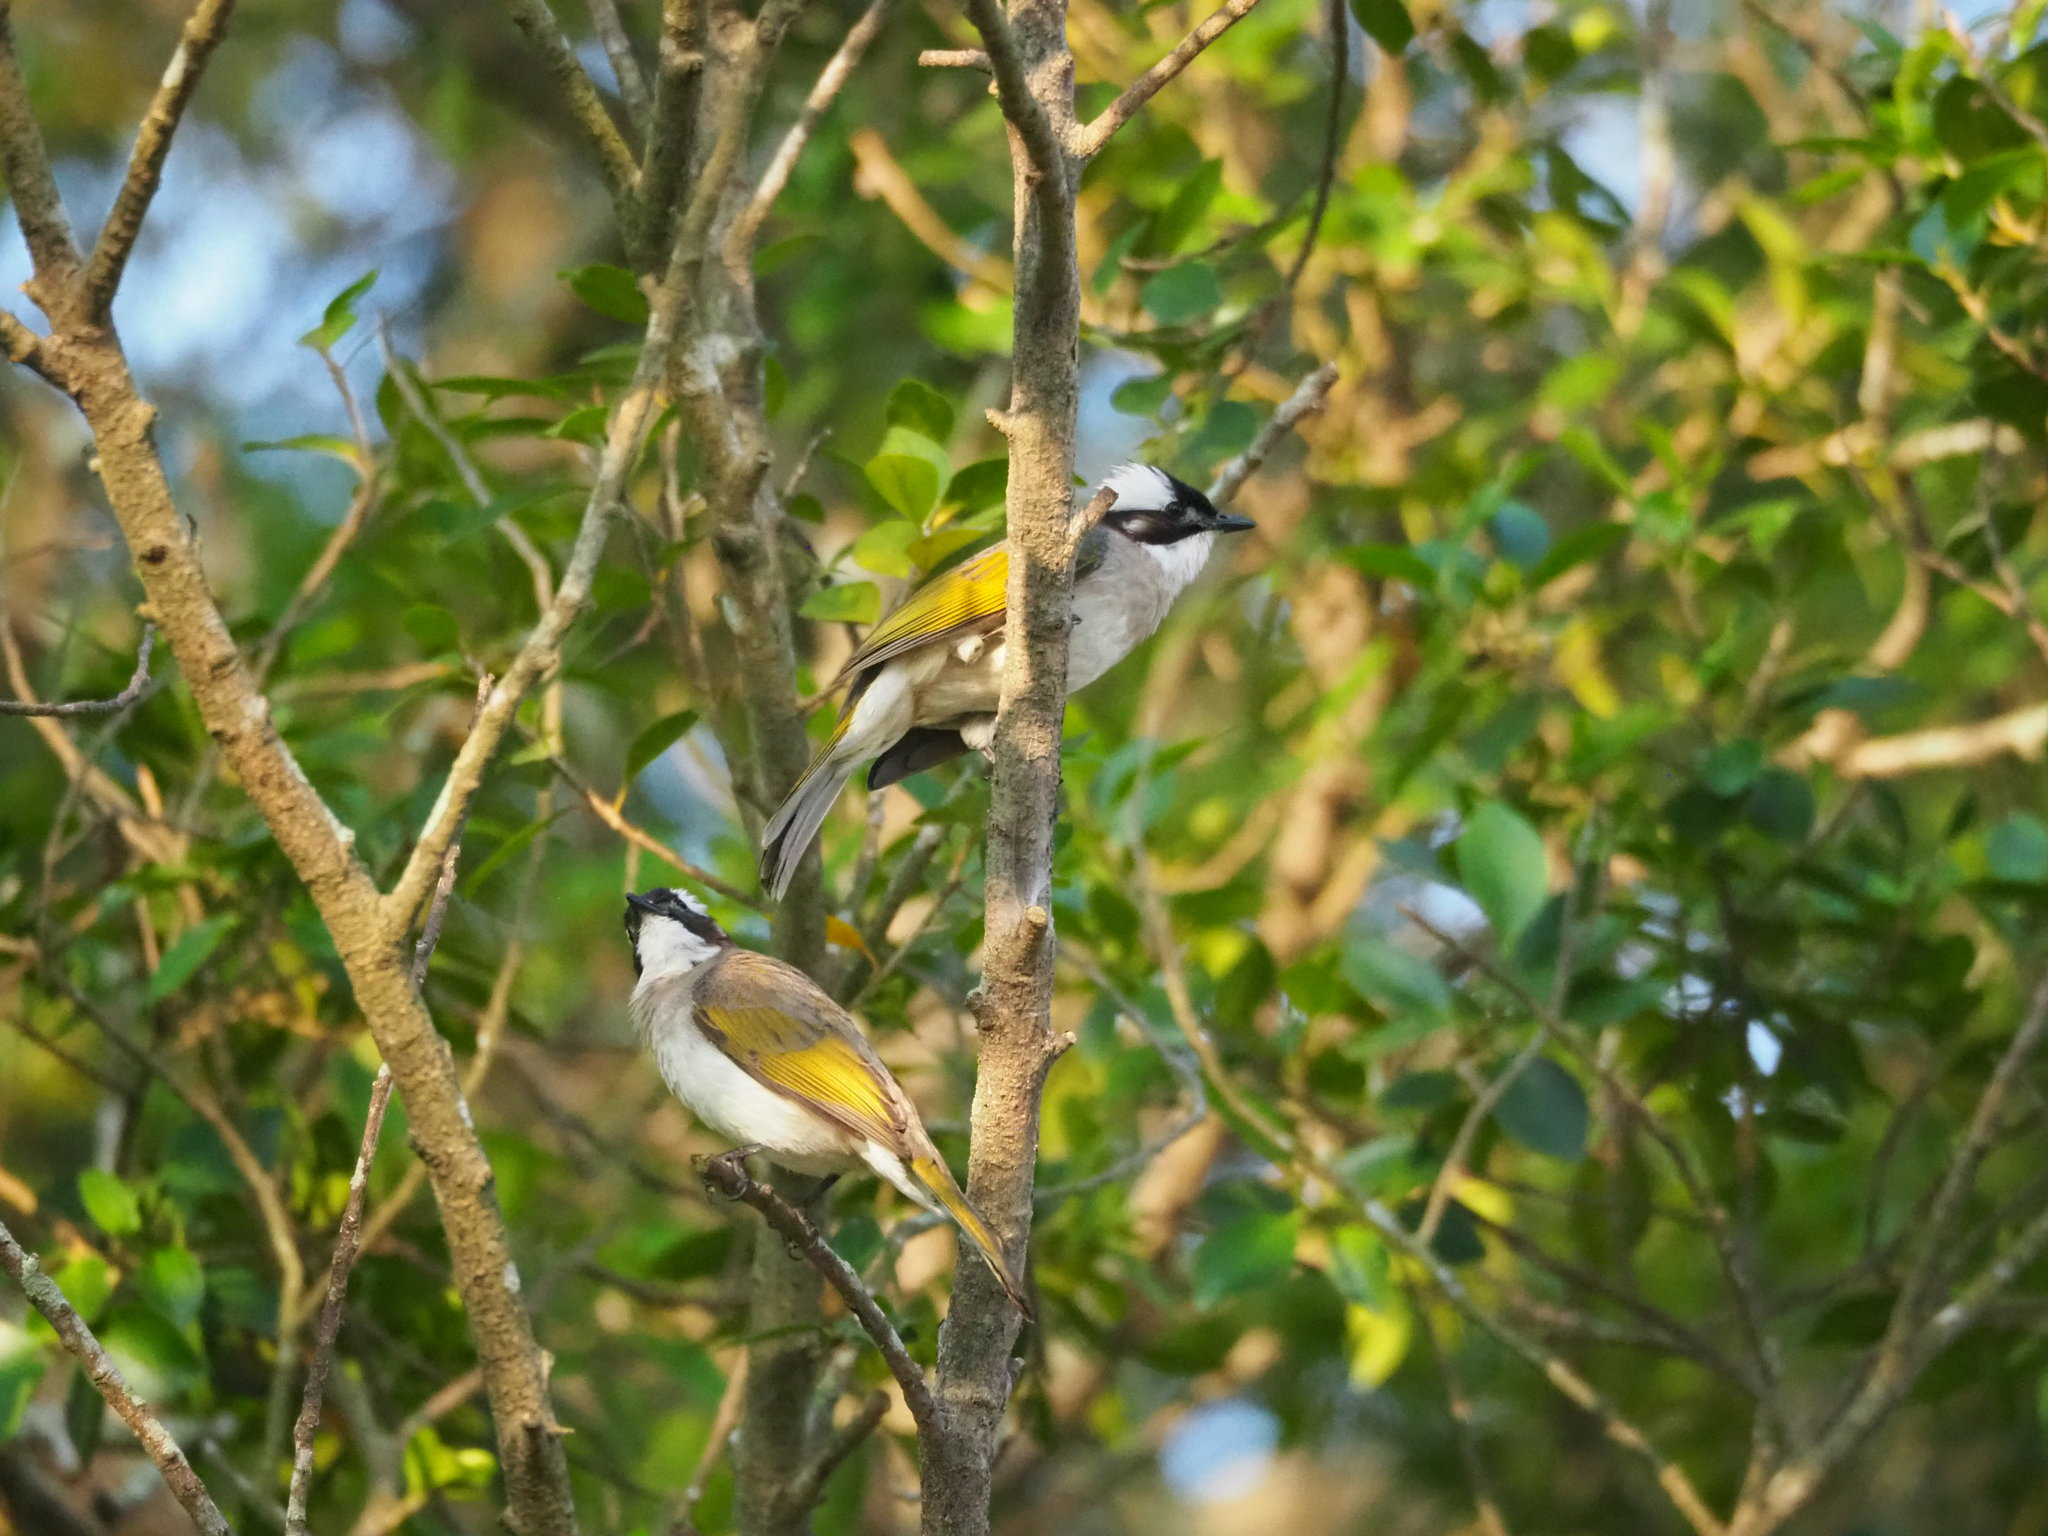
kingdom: Animalia
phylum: Chordata
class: Aves
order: Passeriformes
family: Pycnonotidae
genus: Pycnonotus
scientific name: Pycnonotus sinensis
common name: Light-vented bulbul
